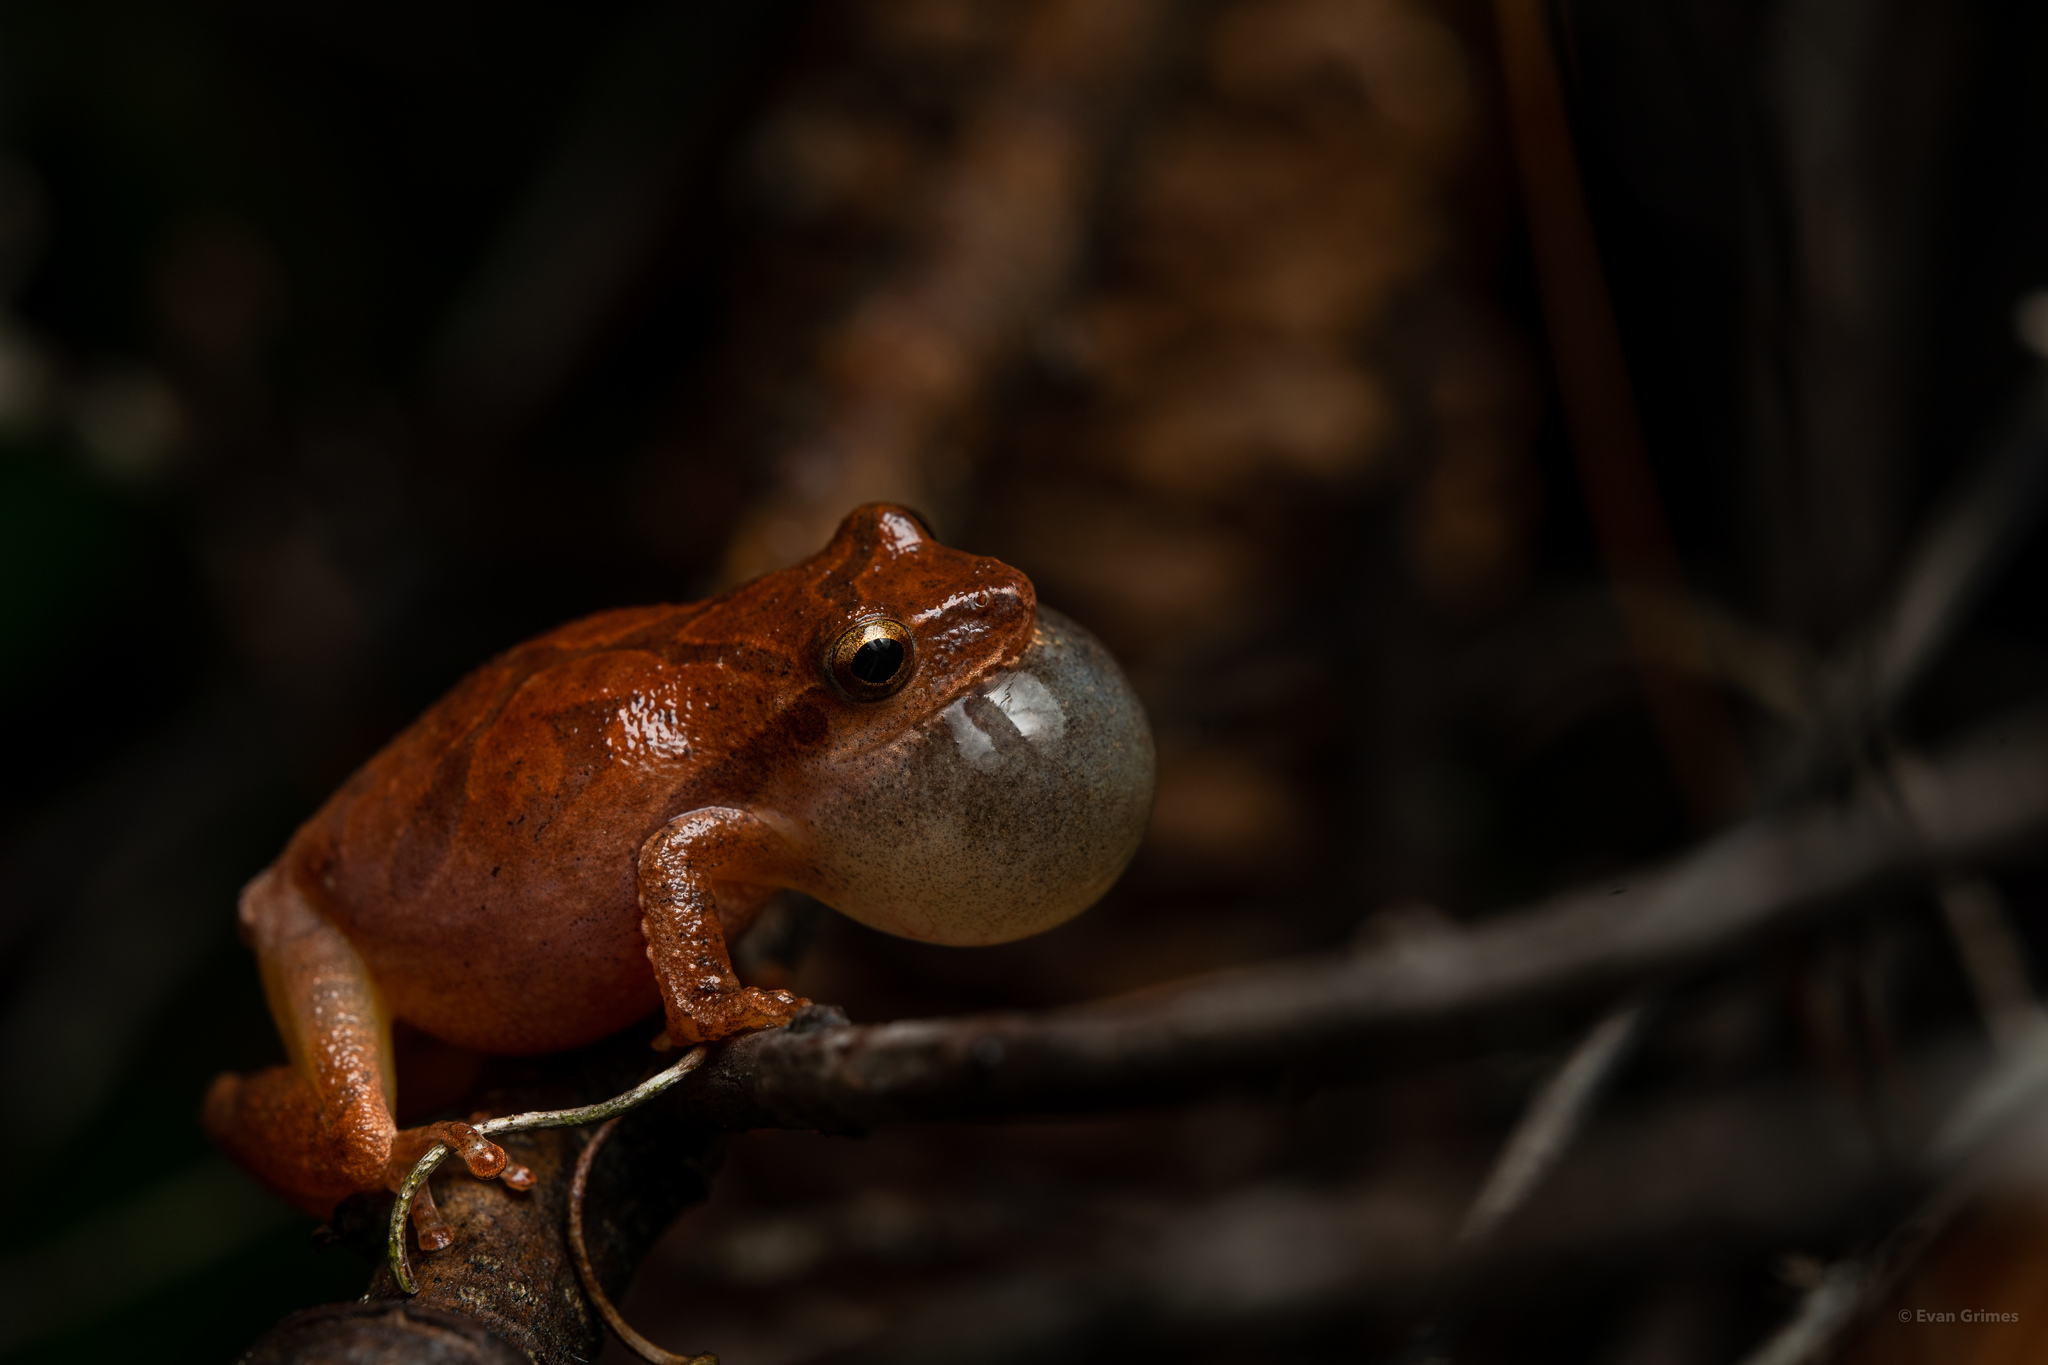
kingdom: Animalia
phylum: Chordata
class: Amphibia
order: Anura
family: Hylidae
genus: Pseudacris
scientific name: Pseudacris crucifer
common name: Spring peeper
